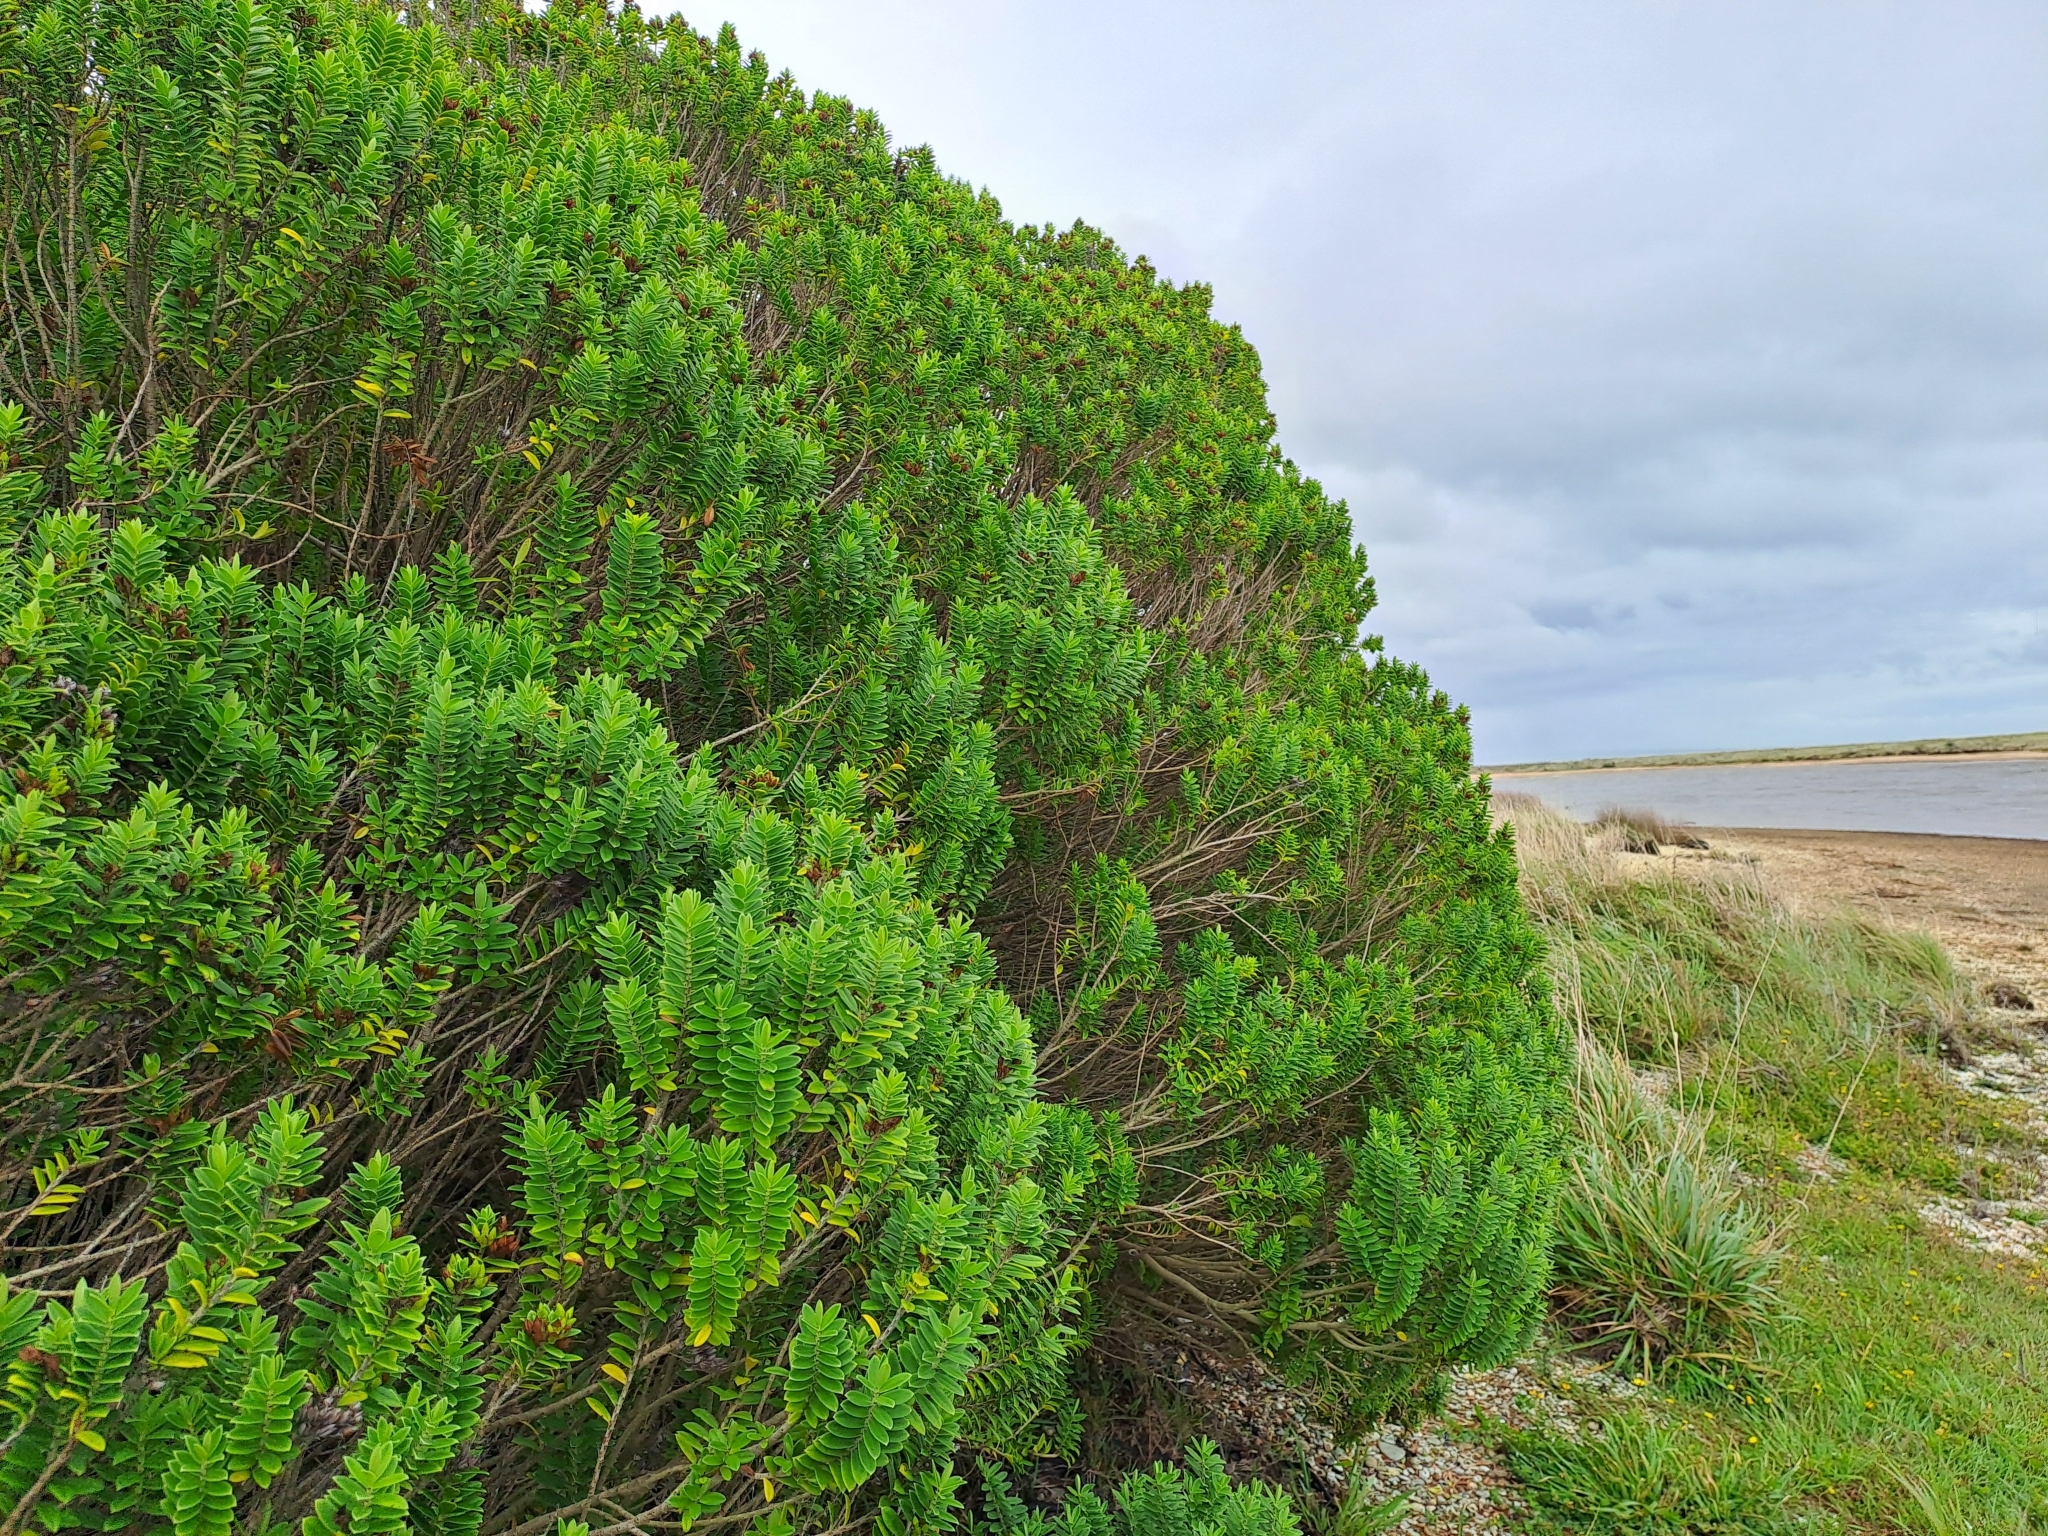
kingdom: Plantae
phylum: Tracheophyta
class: Magnoliopsida
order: Lamiales
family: Plantaginaceae
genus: Veronica
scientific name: Veronica elliptica
